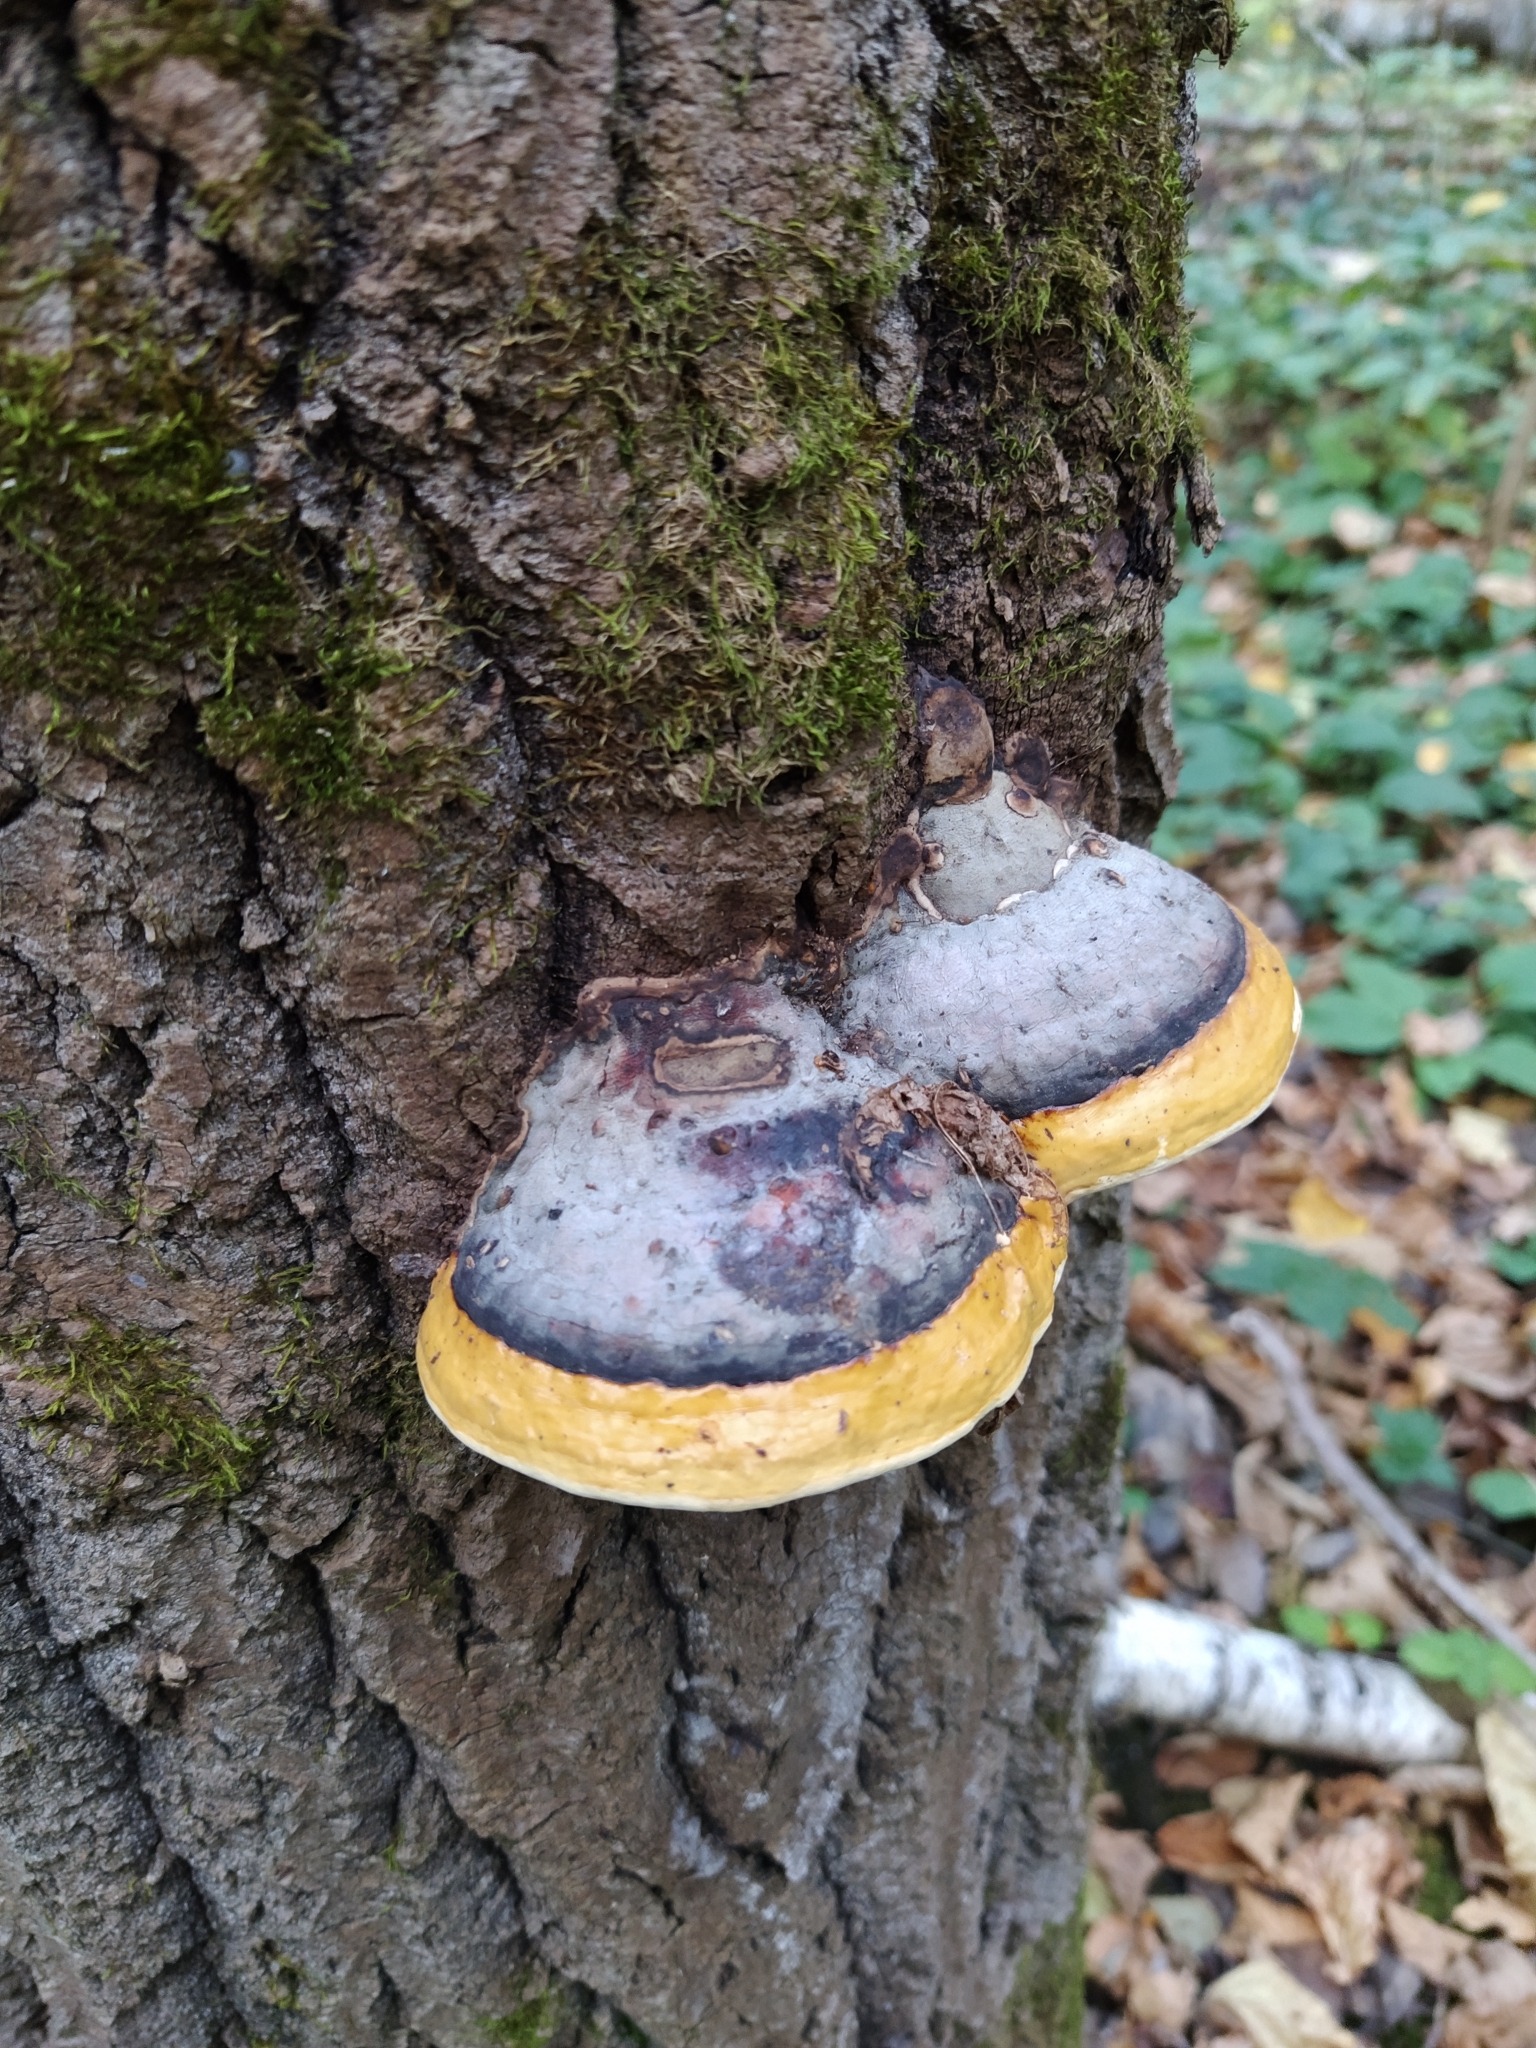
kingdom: Fungi
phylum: Basidiomycota
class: Agaricomycetes
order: Polyporales
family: Fomitopsidaceae
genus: Fomitopsis
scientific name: Fomitopsis pinicola
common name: Red-belted bracket
